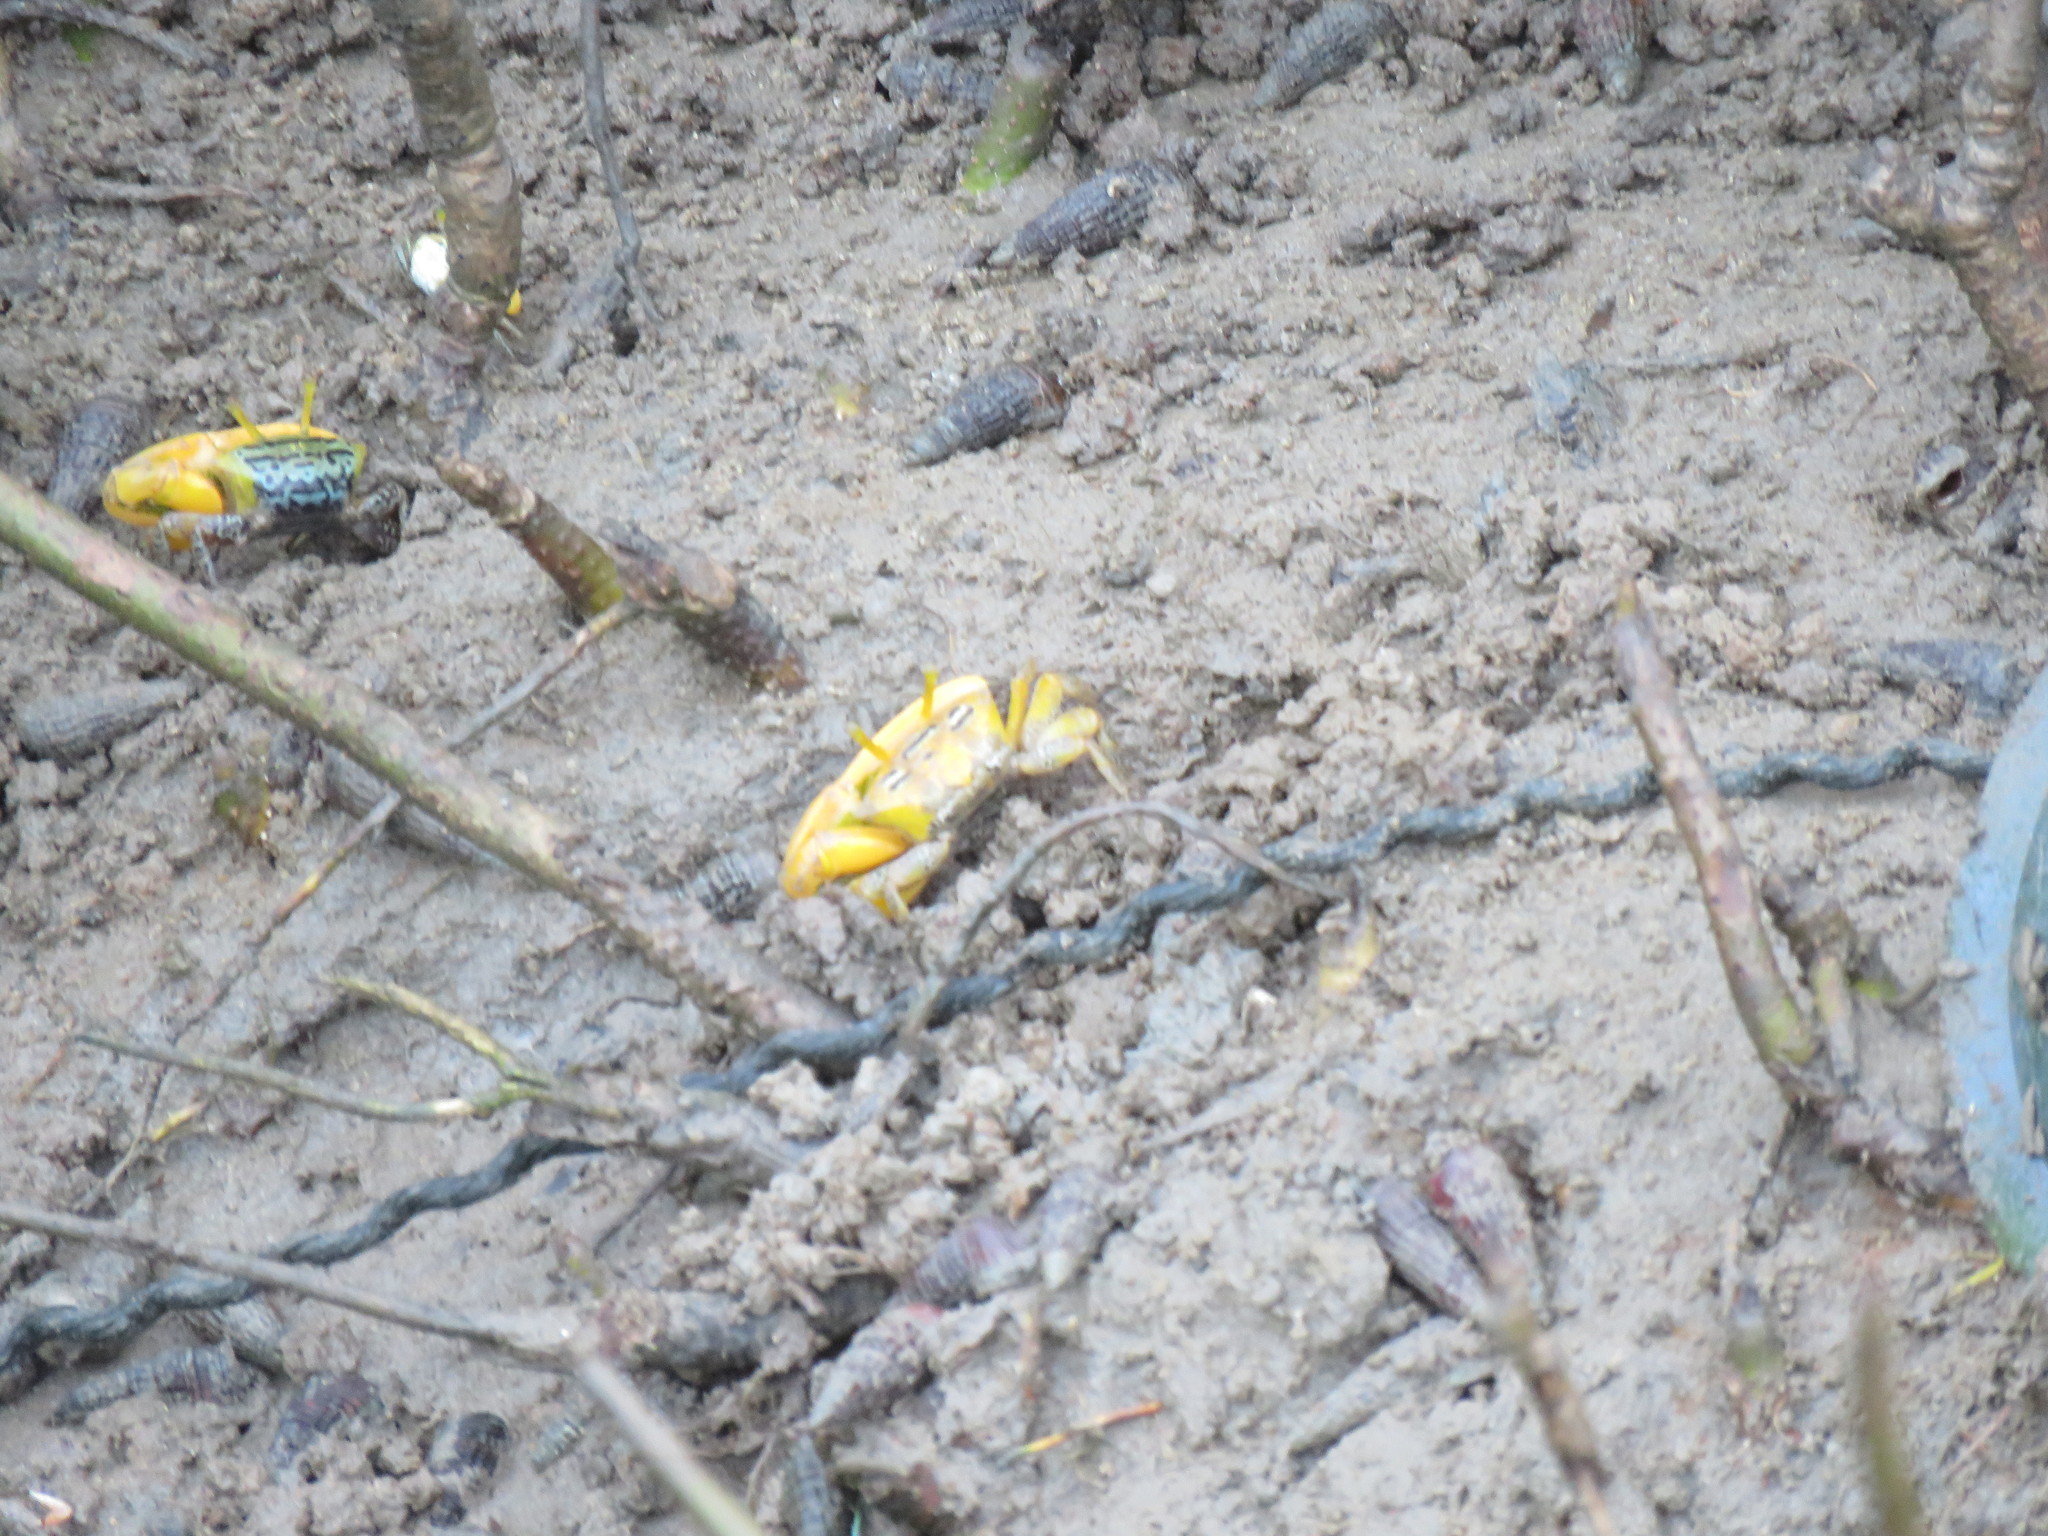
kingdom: Animalia
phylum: Arthropoda
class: Malacostraca
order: Decapoda
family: Ocypodidae
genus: Austruca
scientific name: Austruca variegata
